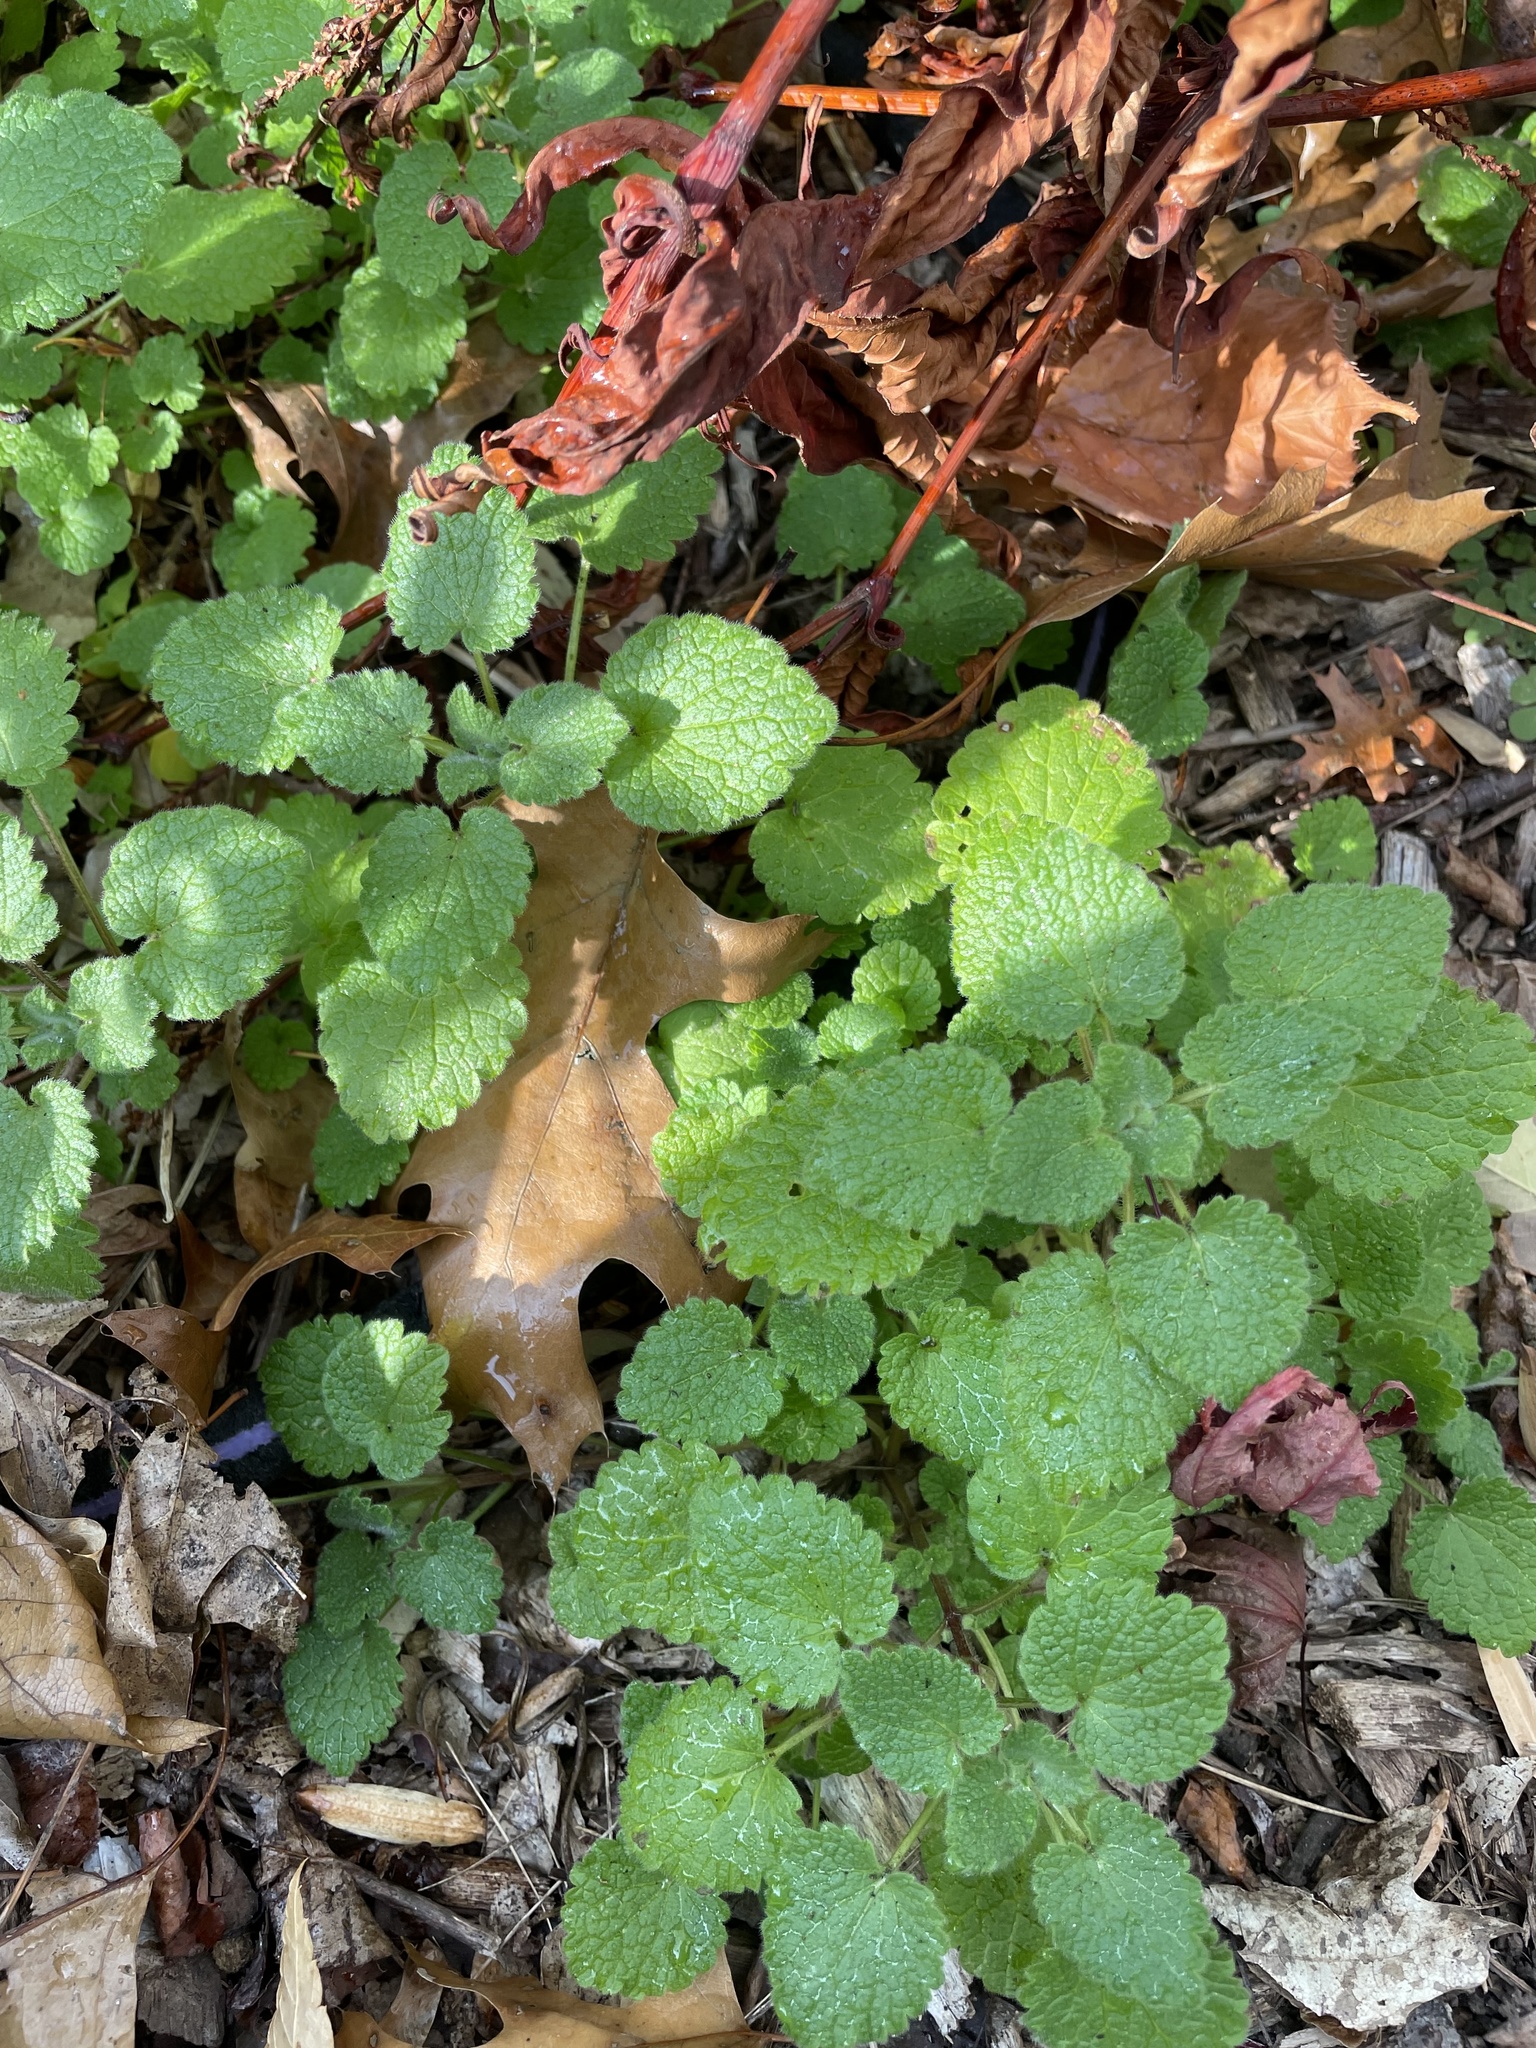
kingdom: Plantae
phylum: Tracheophyta
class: Magnoliopsida
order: Lamiales
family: Lamiaceae
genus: Lamium
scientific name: Lamium purpureum
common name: Red dead-nettle
